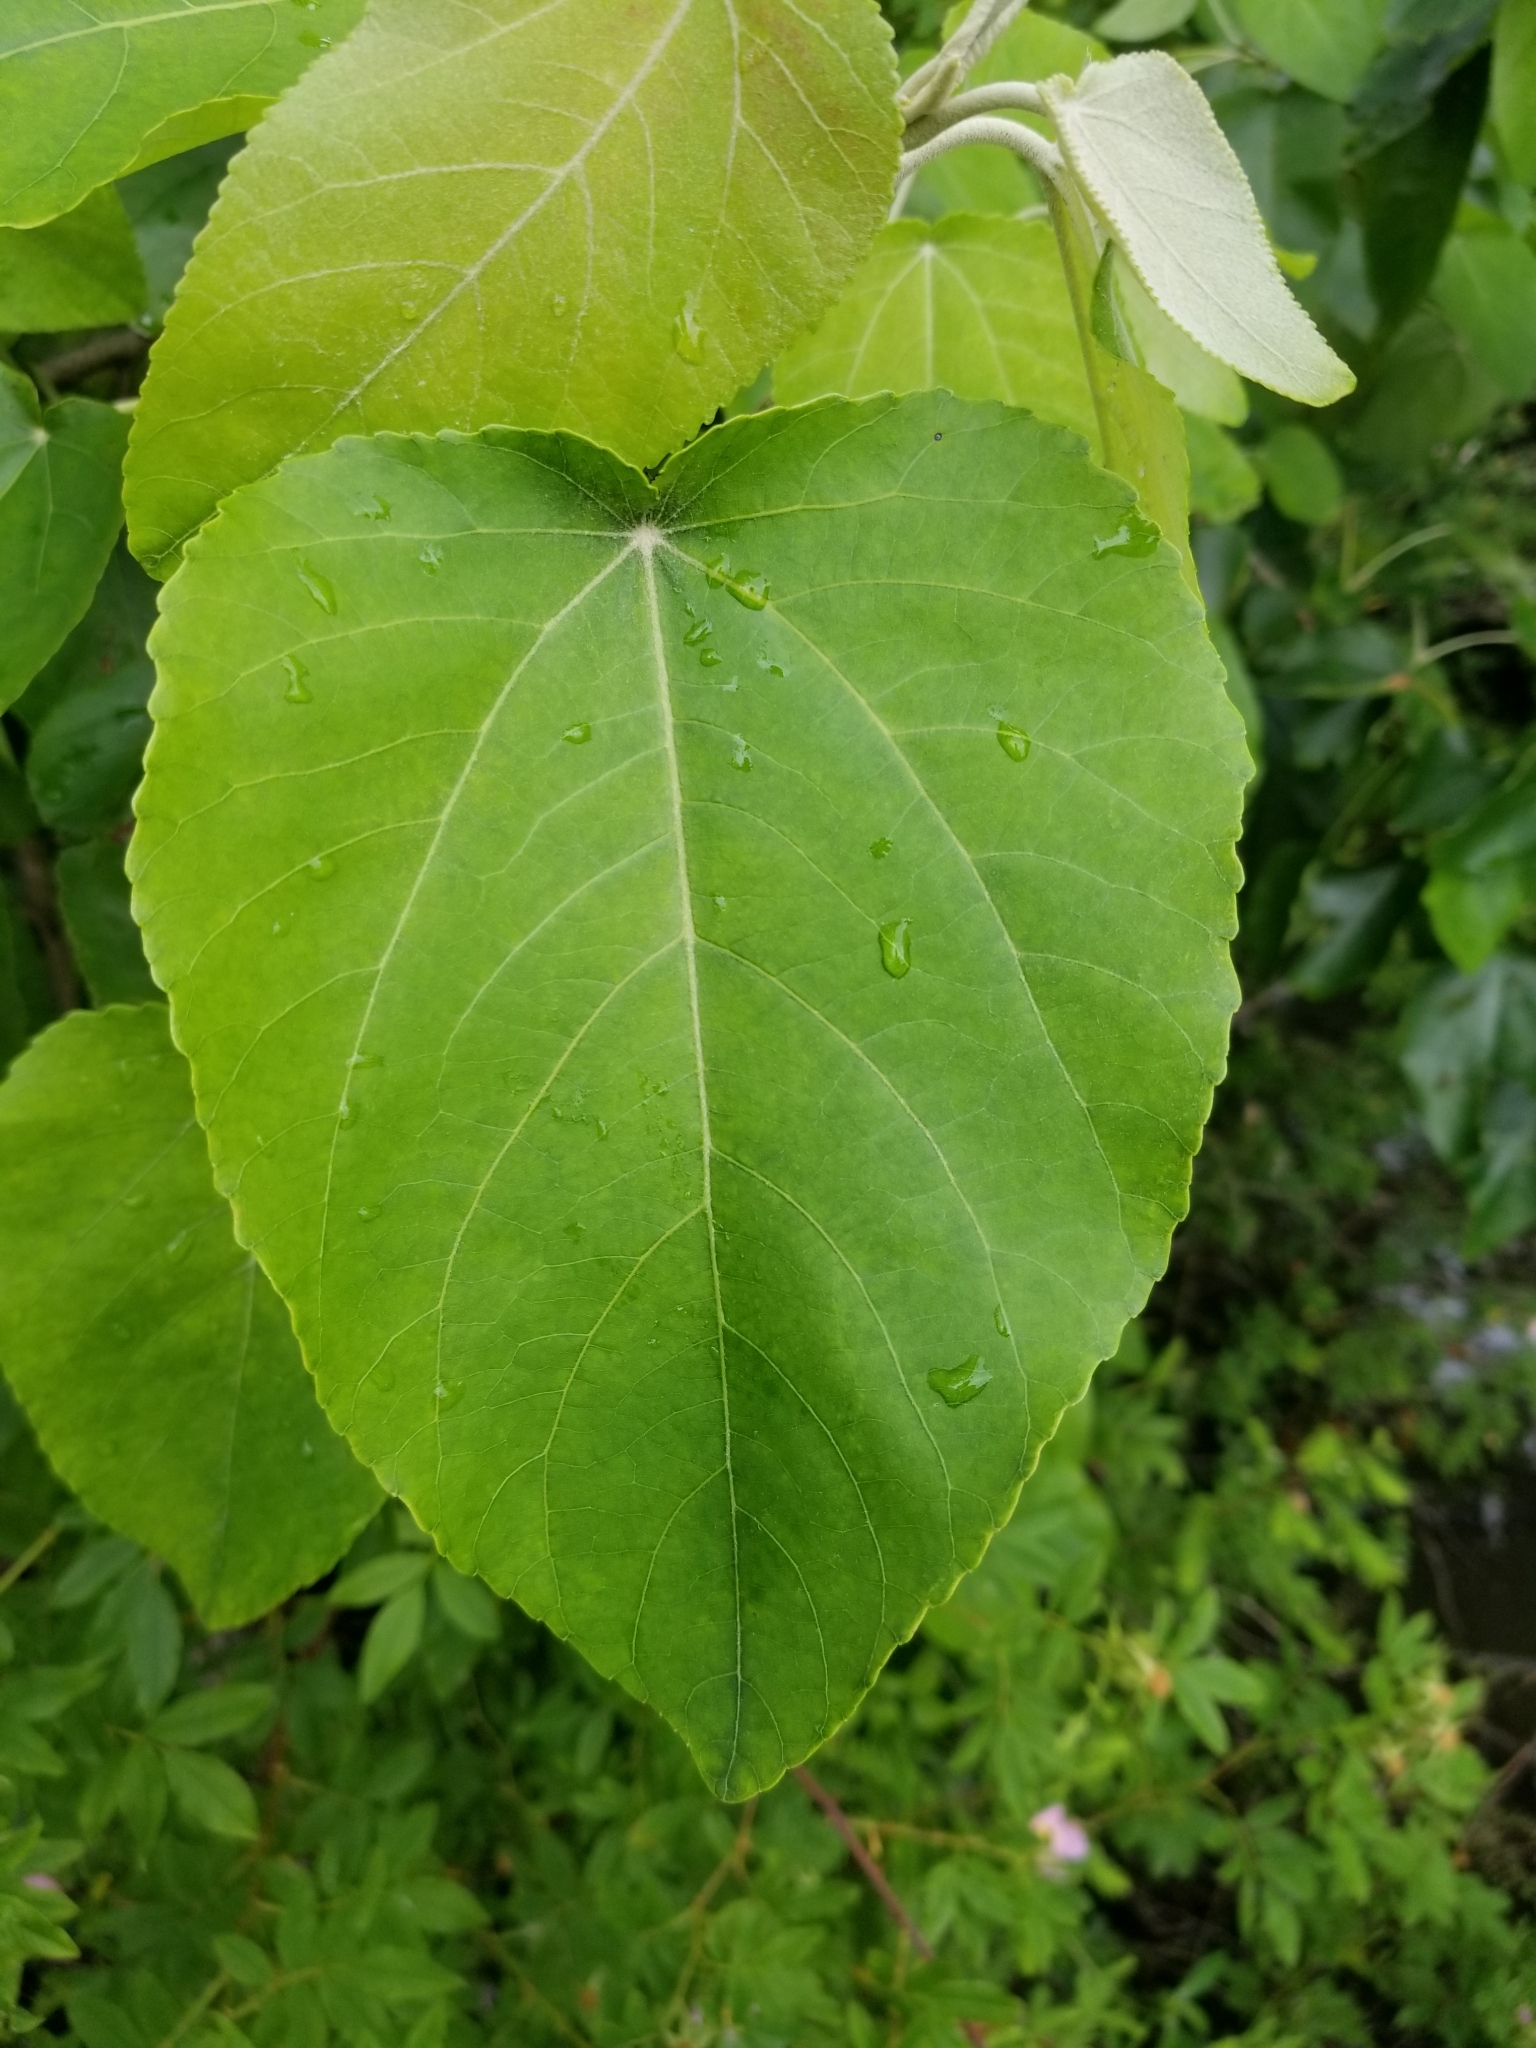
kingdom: Plantae
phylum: Tracheophyta
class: Magnoliopsida
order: Malpighiales
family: Salicaceae
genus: Populus
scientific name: Populus heterophylla
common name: Downy poplar
